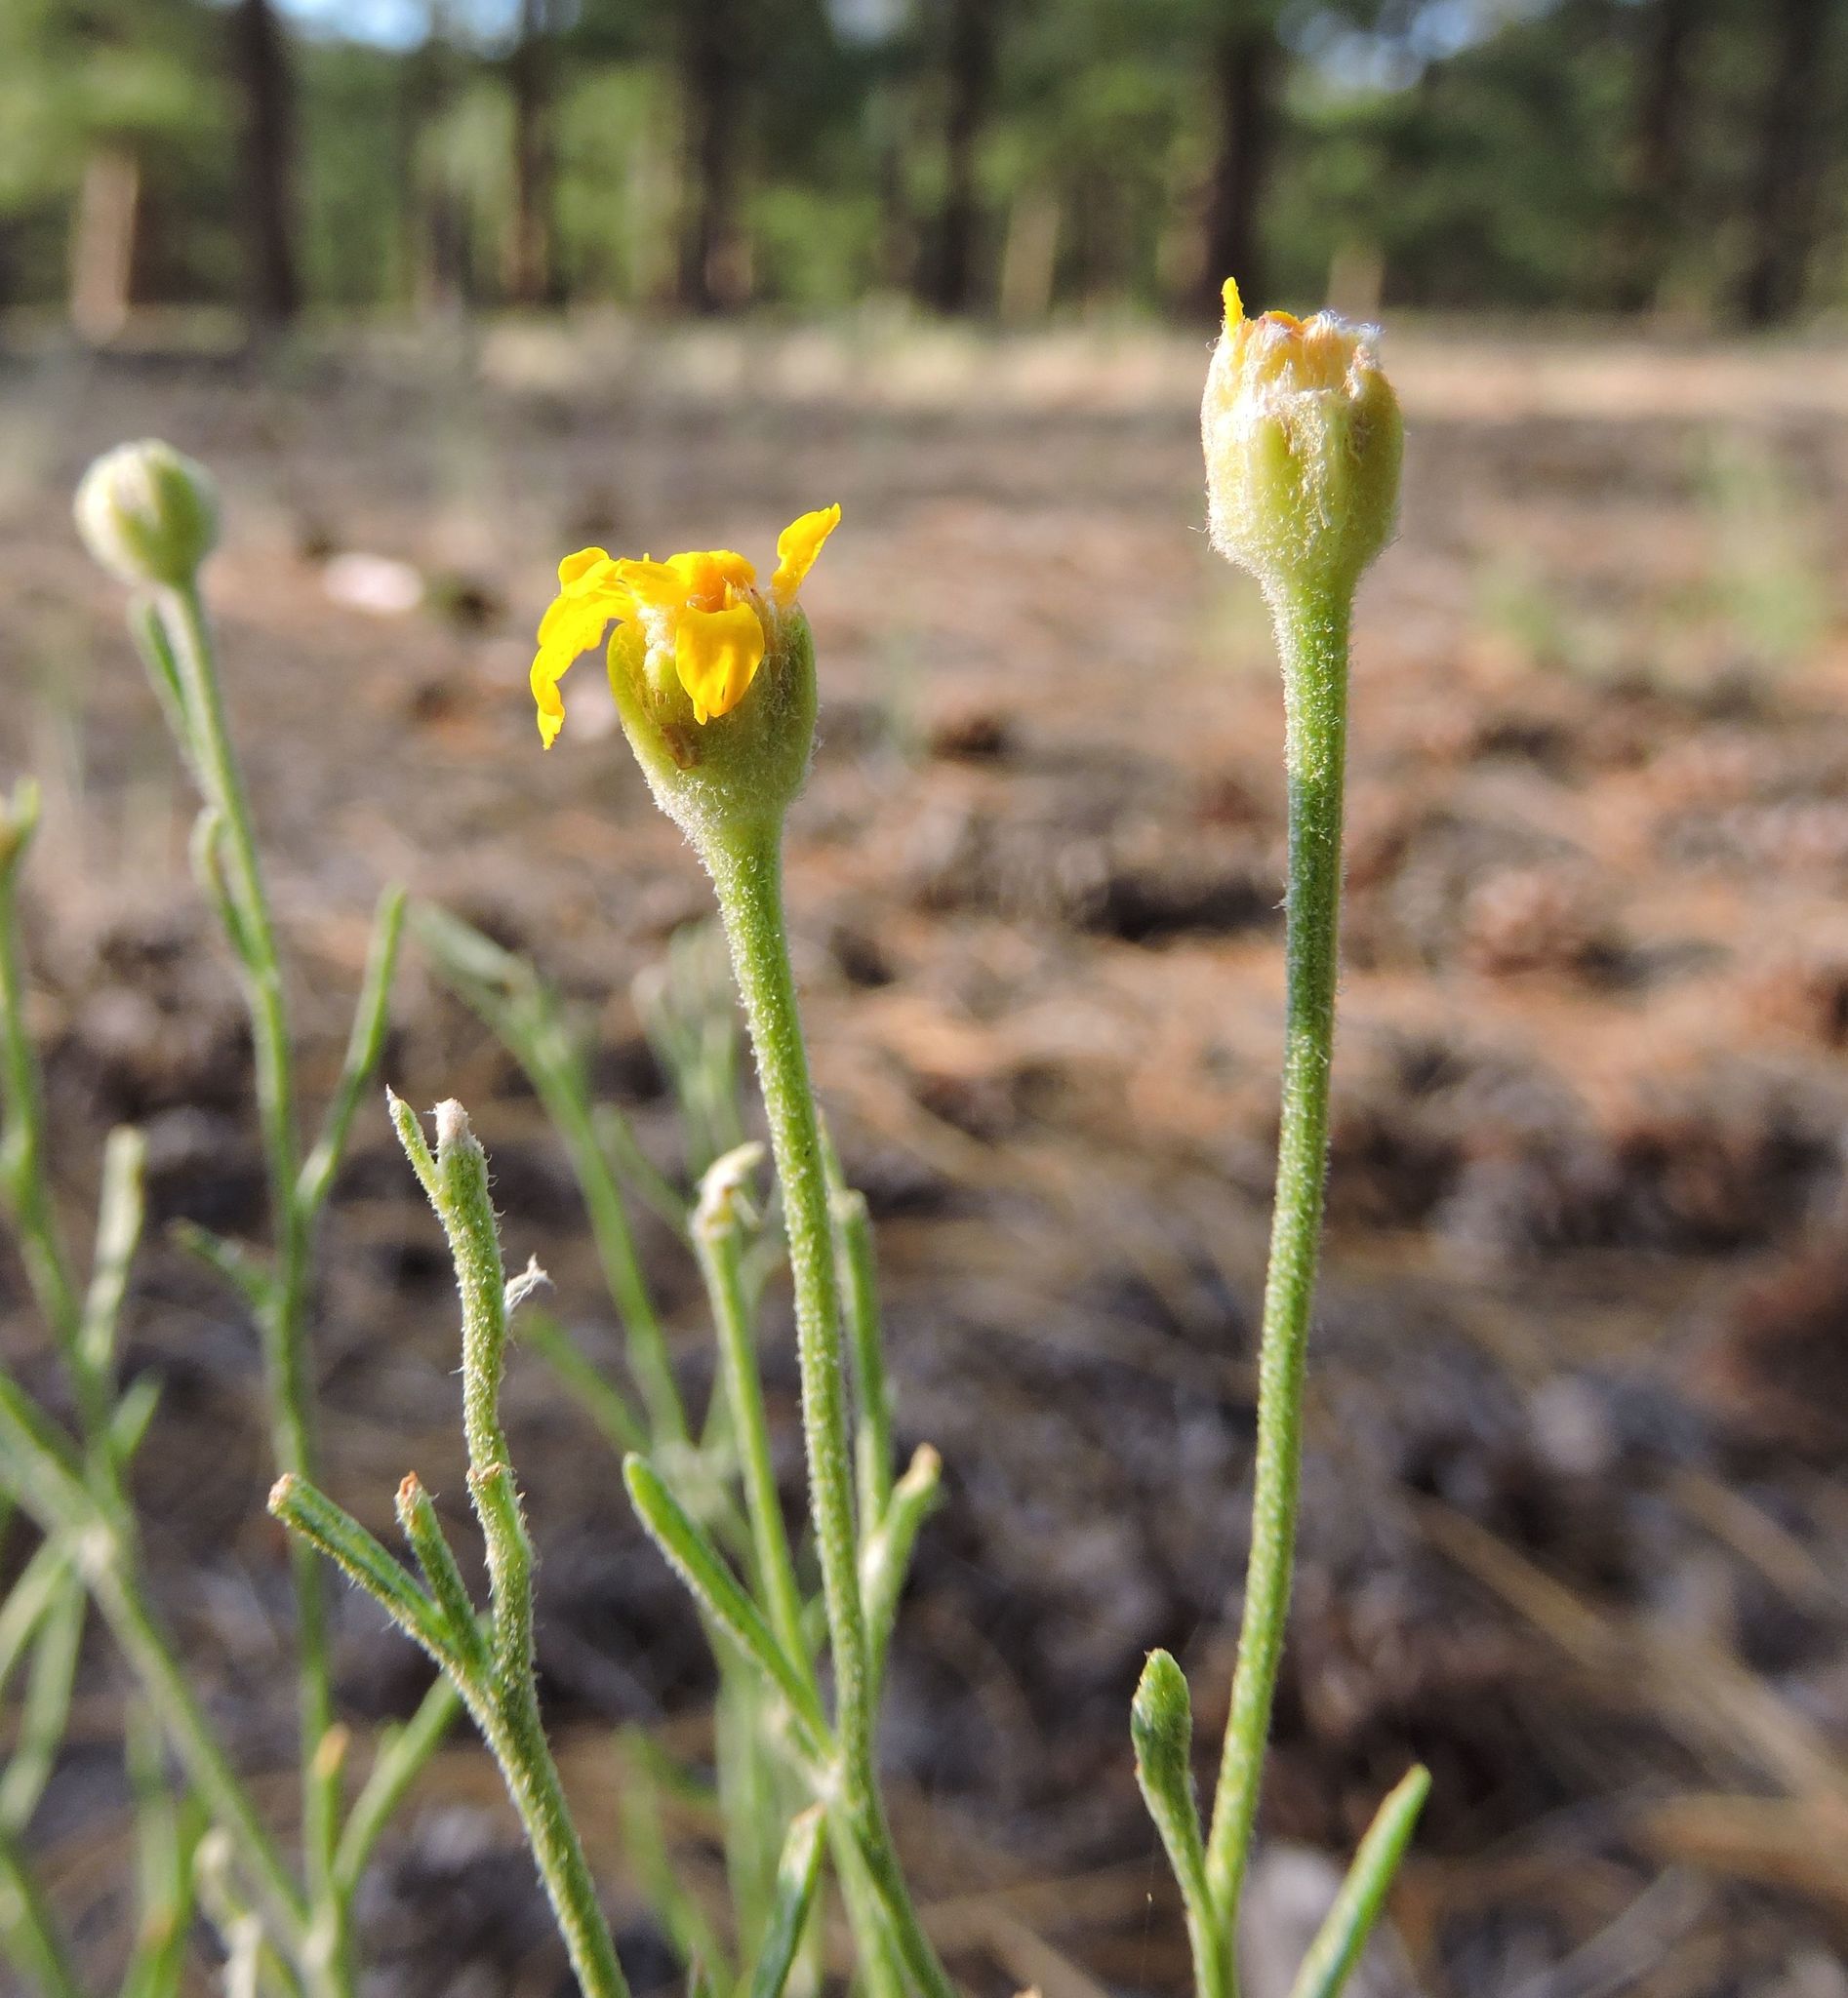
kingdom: Plantae
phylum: Tracheophyta
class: Magnoliopsida
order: Asterales
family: Asteraceae
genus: Hymenoxys
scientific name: Hymenoxys richardsonii
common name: Pingue rubberweed
